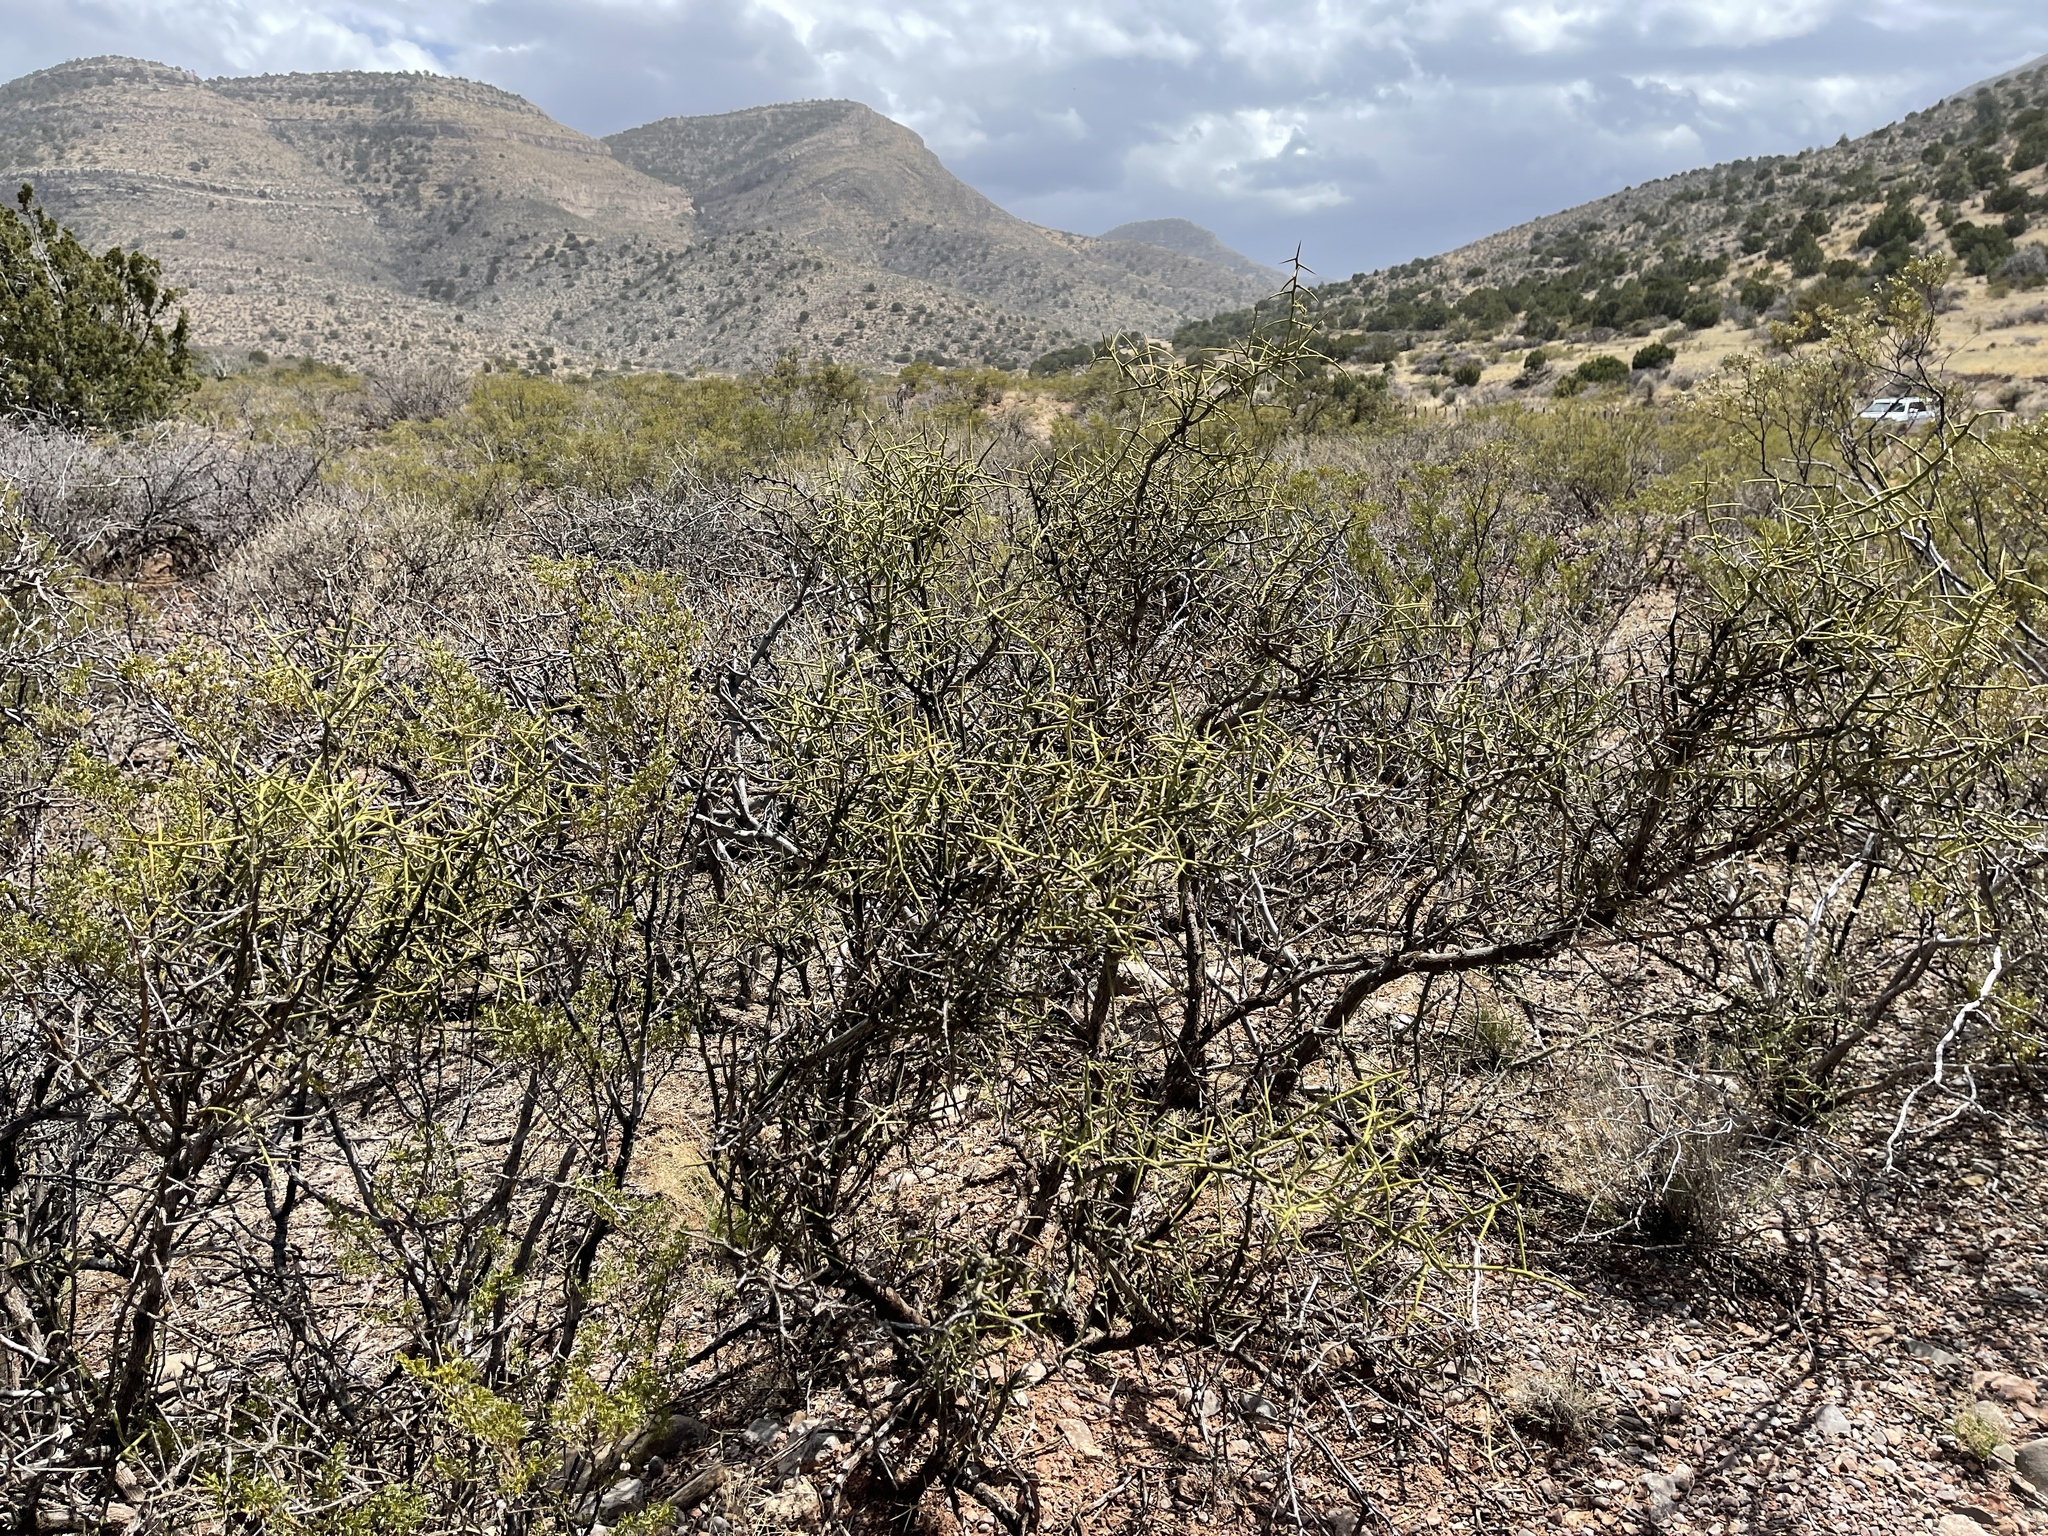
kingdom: Plantae
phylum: Tracheophyta
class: Magnoliopsida
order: Brassicales
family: Koeberliniaceae
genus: Koeberlinia
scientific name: Koeberlinia spinosa
